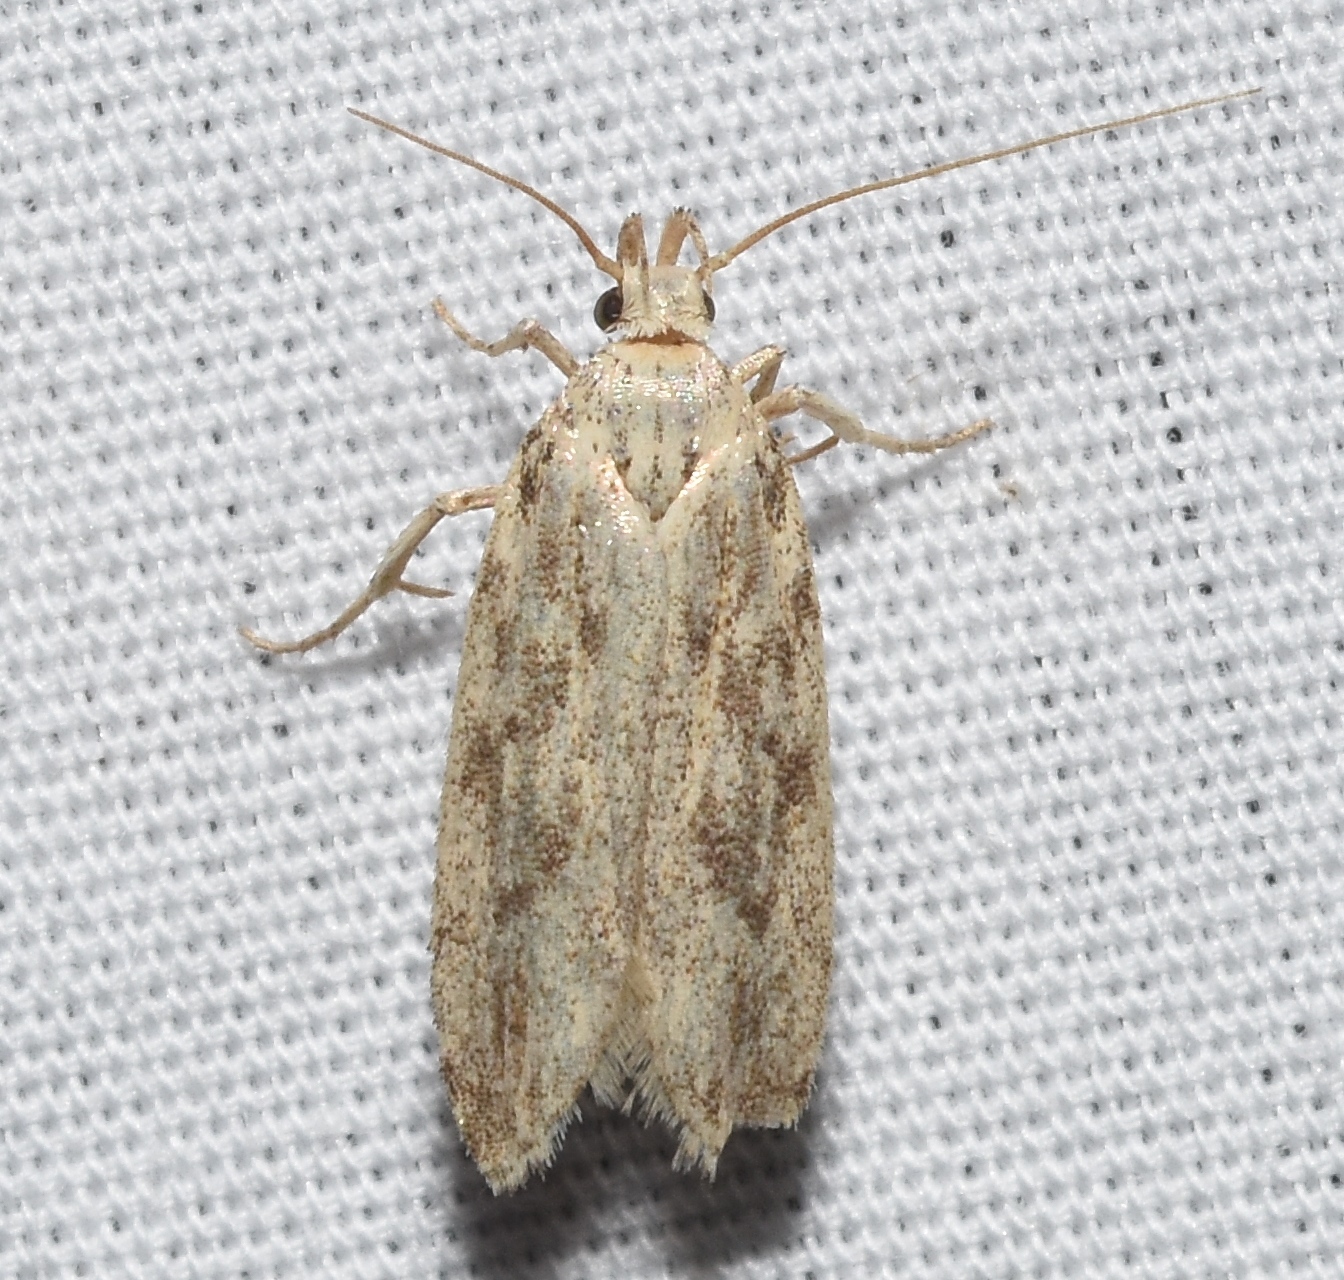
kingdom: Animalia
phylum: Arthropoda
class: Insecta
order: Lepidoptera
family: Gelechiidae
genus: Frumenta
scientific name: Frumenta nundinella
